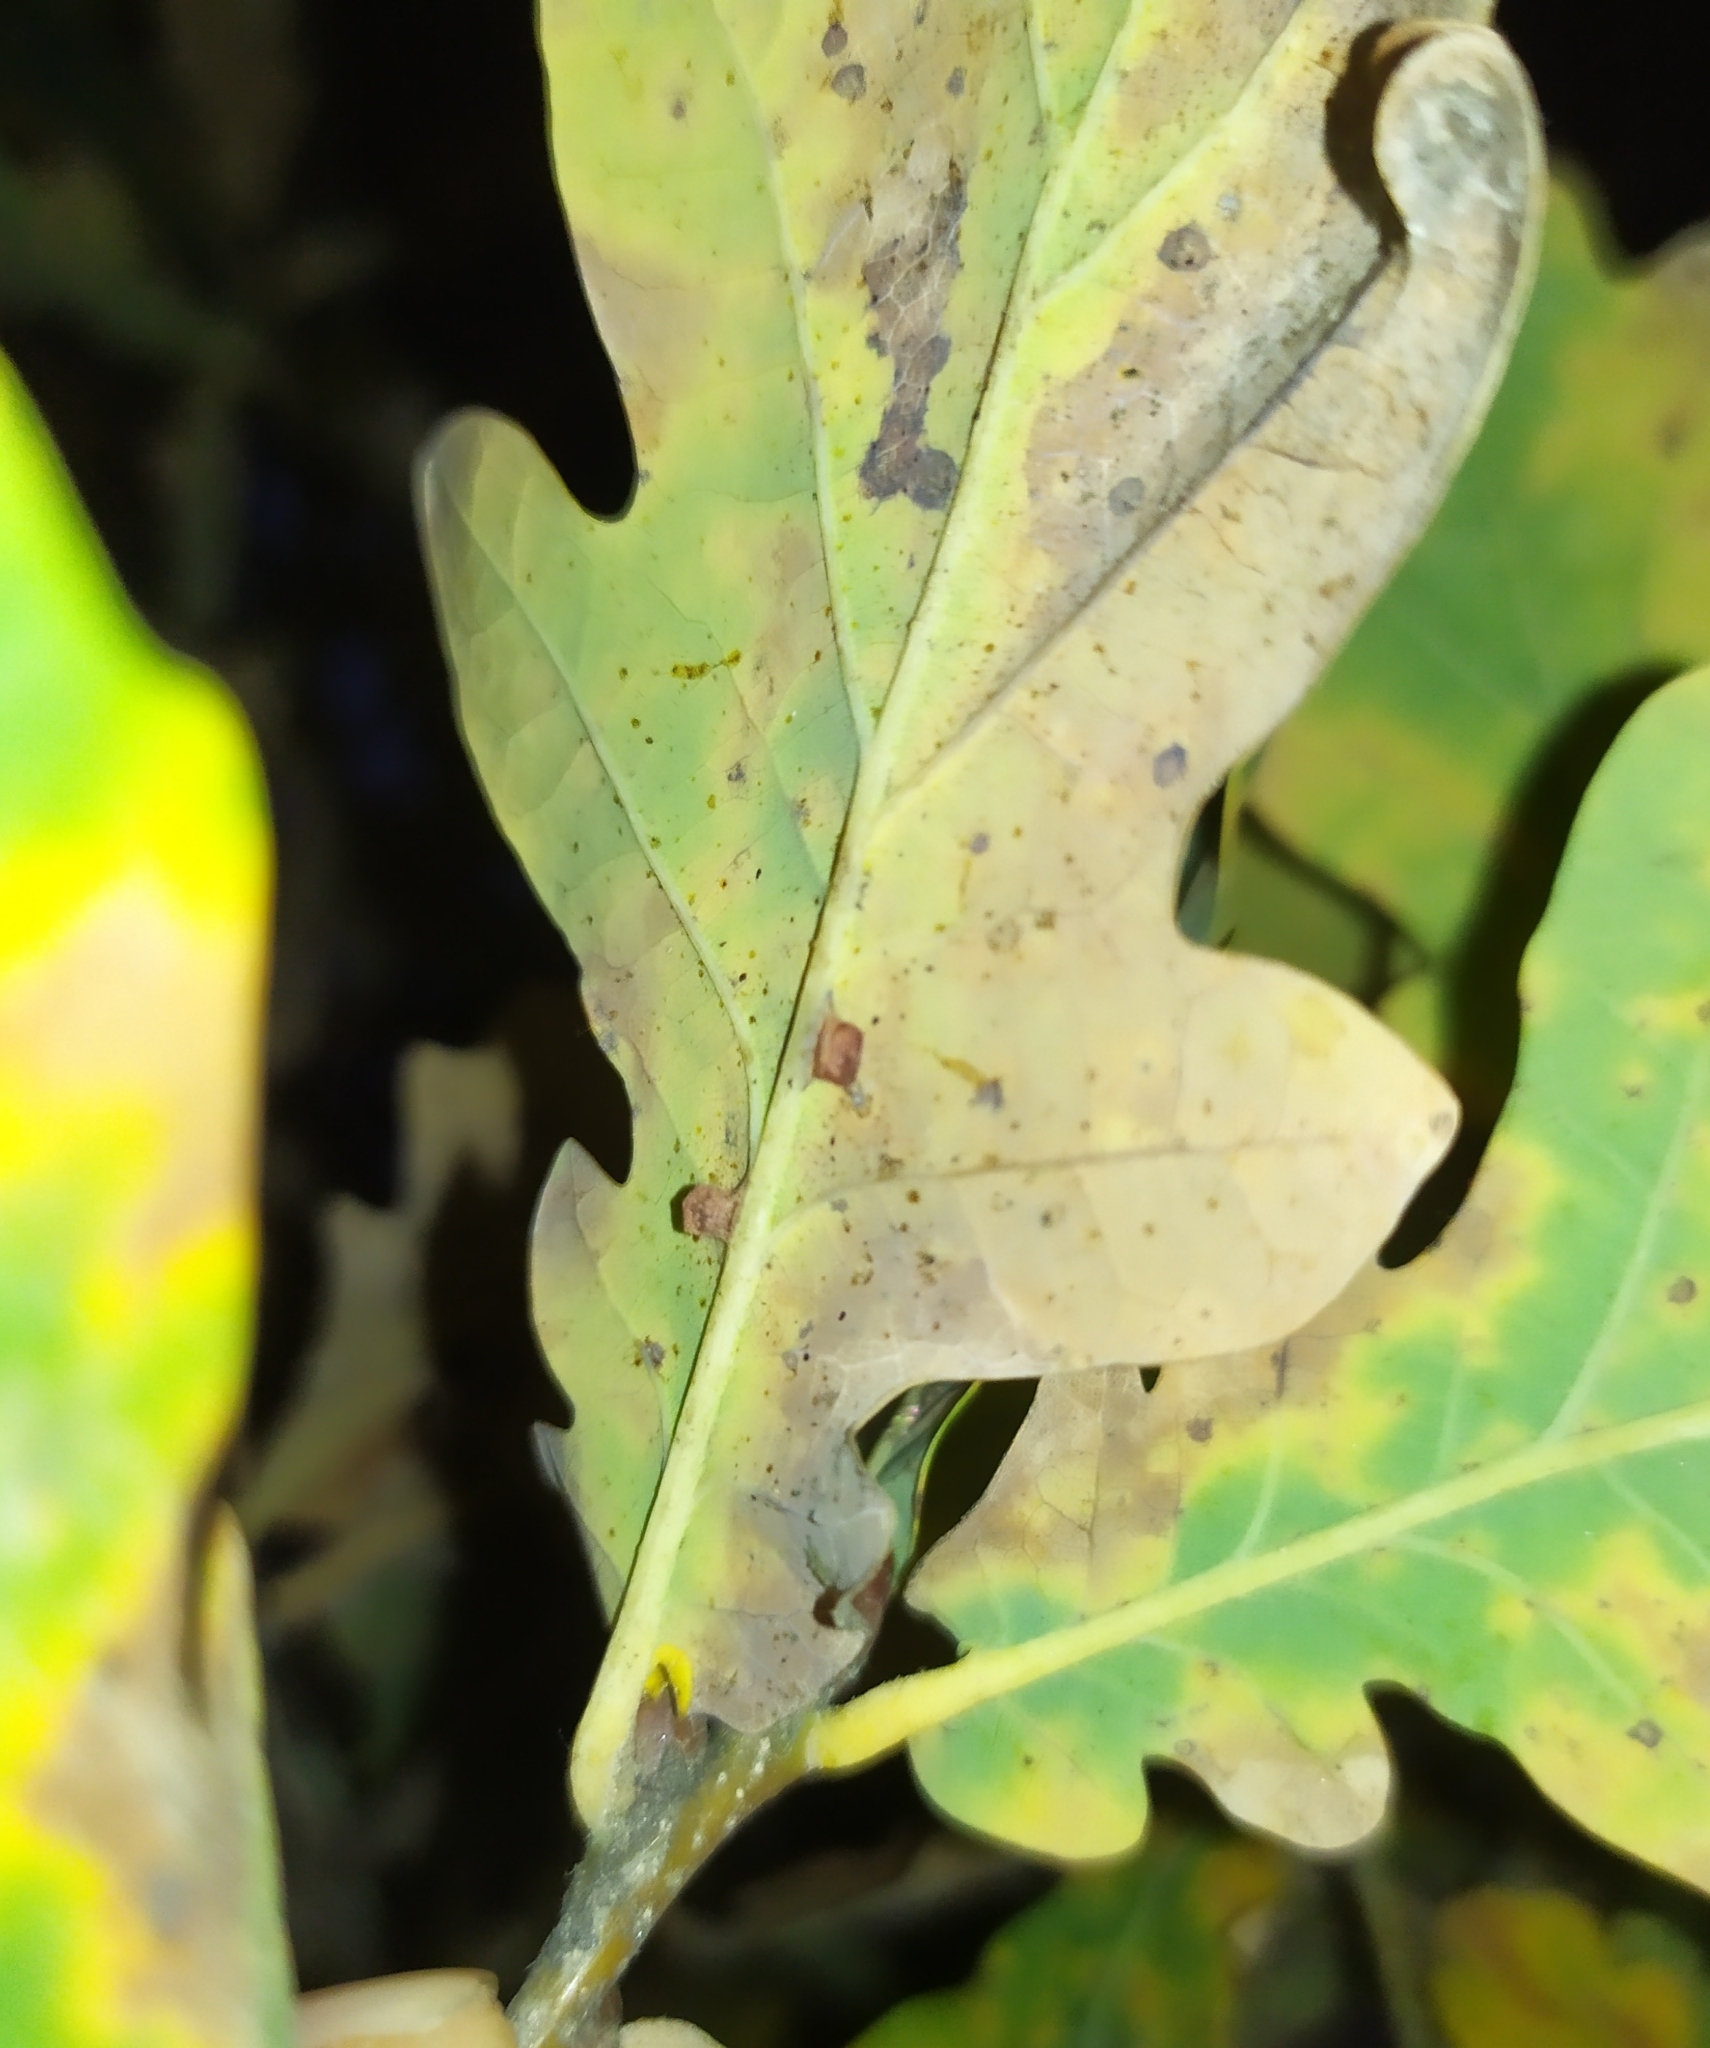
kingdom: Animalia
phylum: Arthropoda
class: Insecta
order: Hymenoptera
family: Cynipidae
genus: Neuroterus
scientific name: Neuroterus anthracinus
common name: Oyster gall
